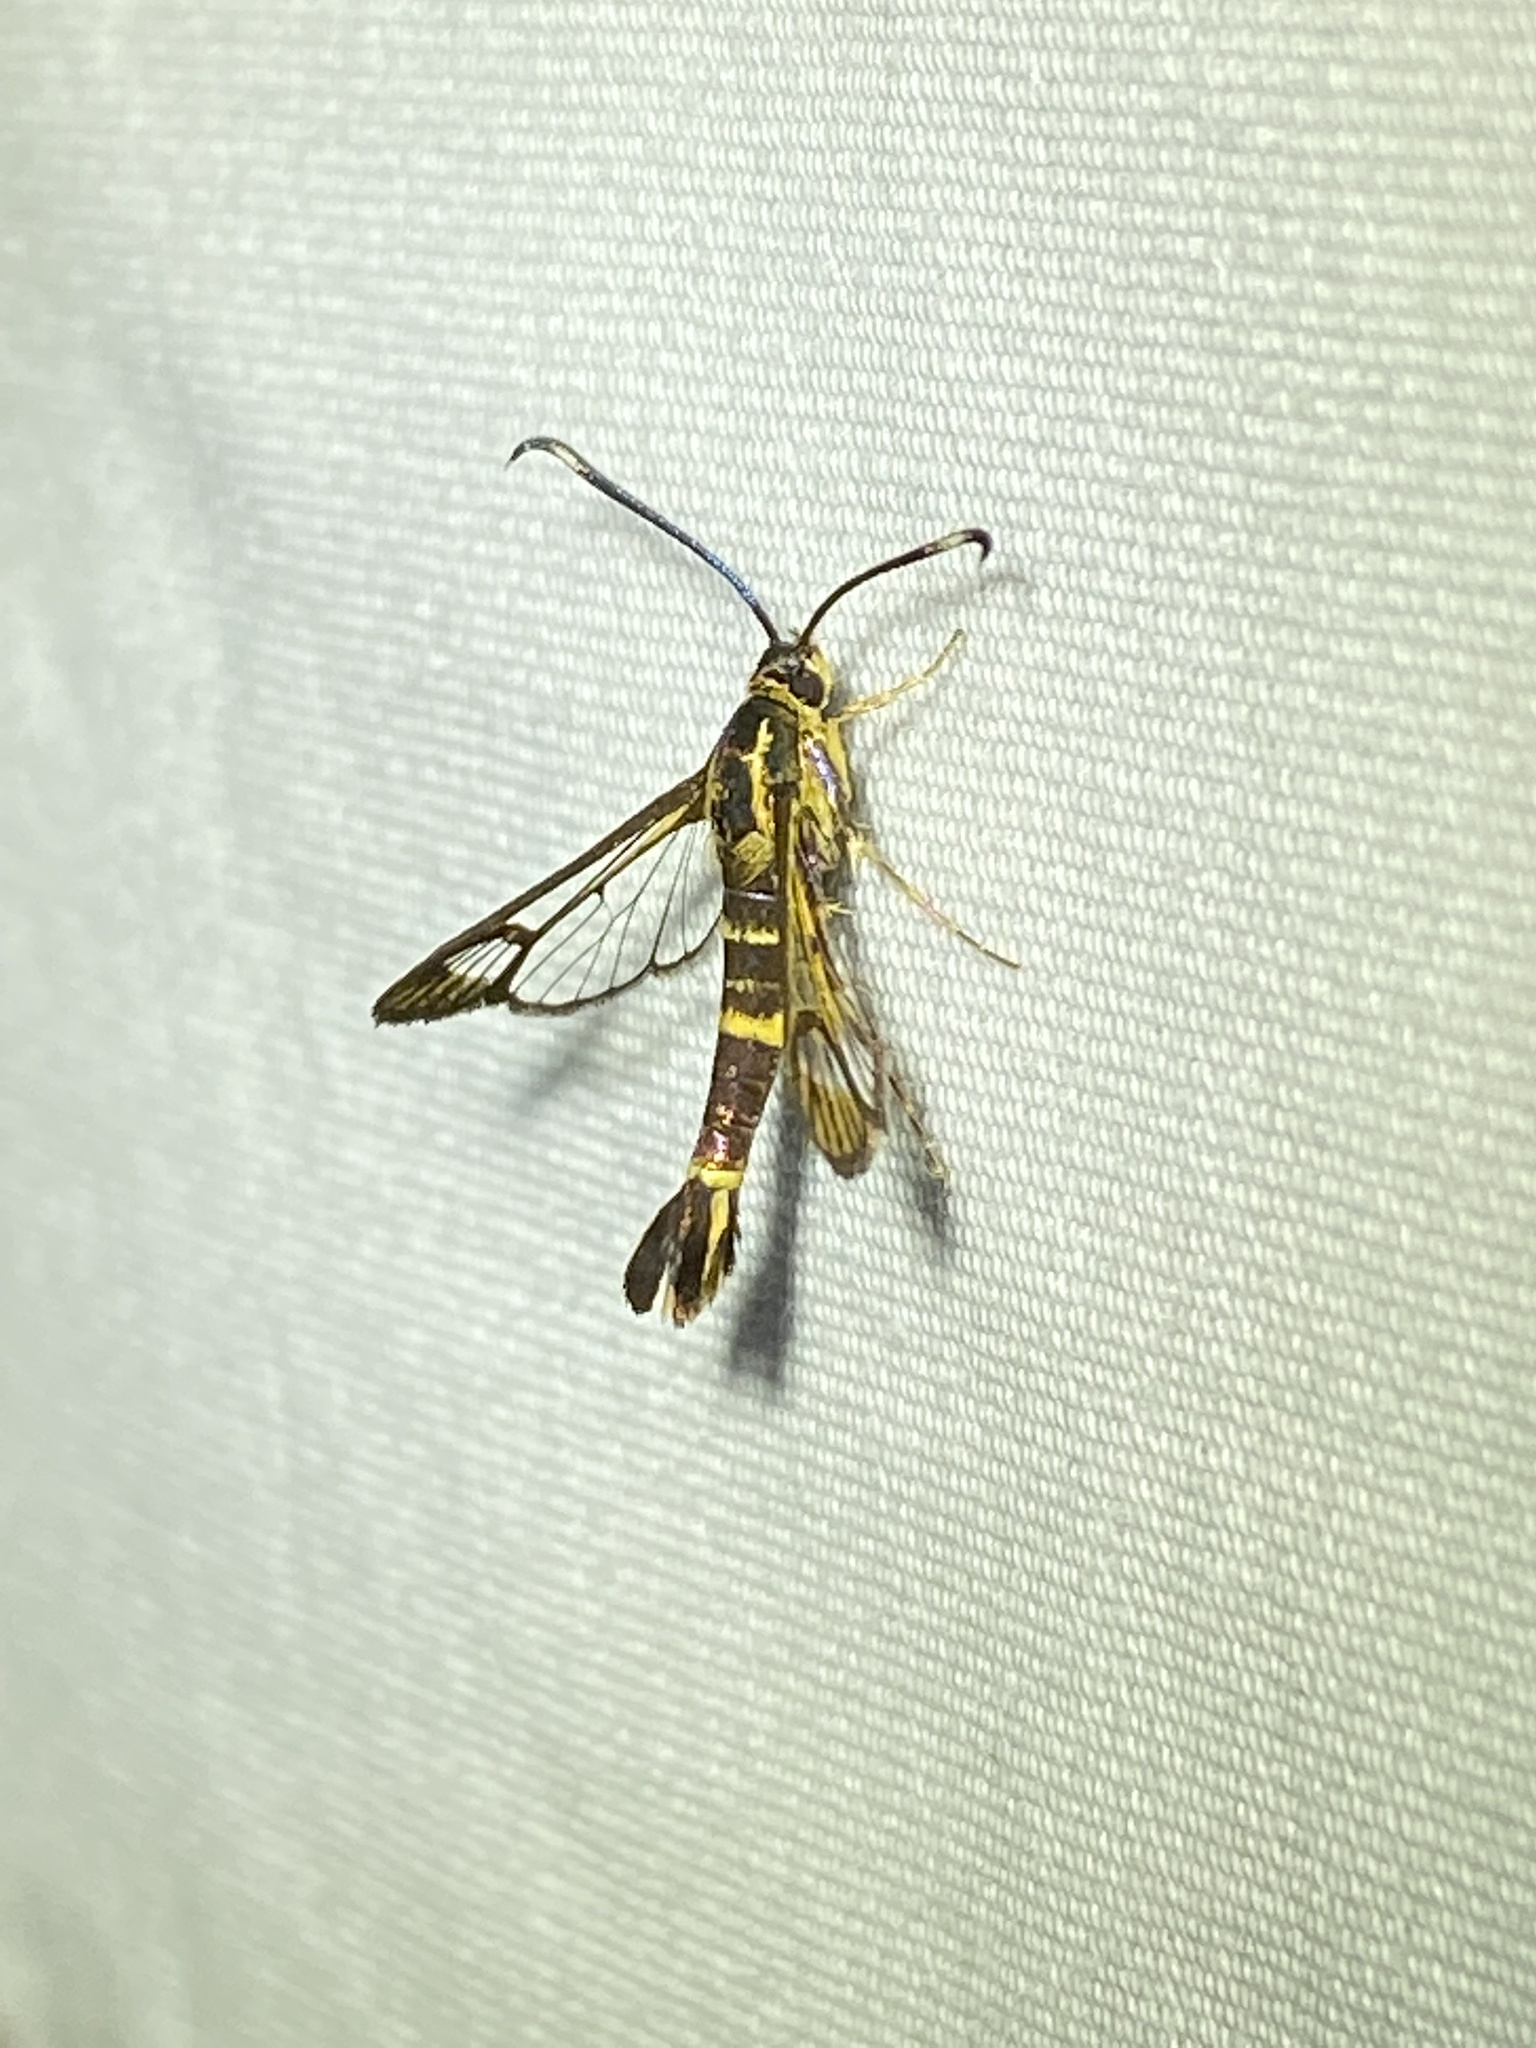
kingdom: Animalia
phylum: Arthropoda
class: Insecta
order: Lepidoptera
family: Sesiidae
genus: Carmenta
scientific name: Carmenta bassiformis
